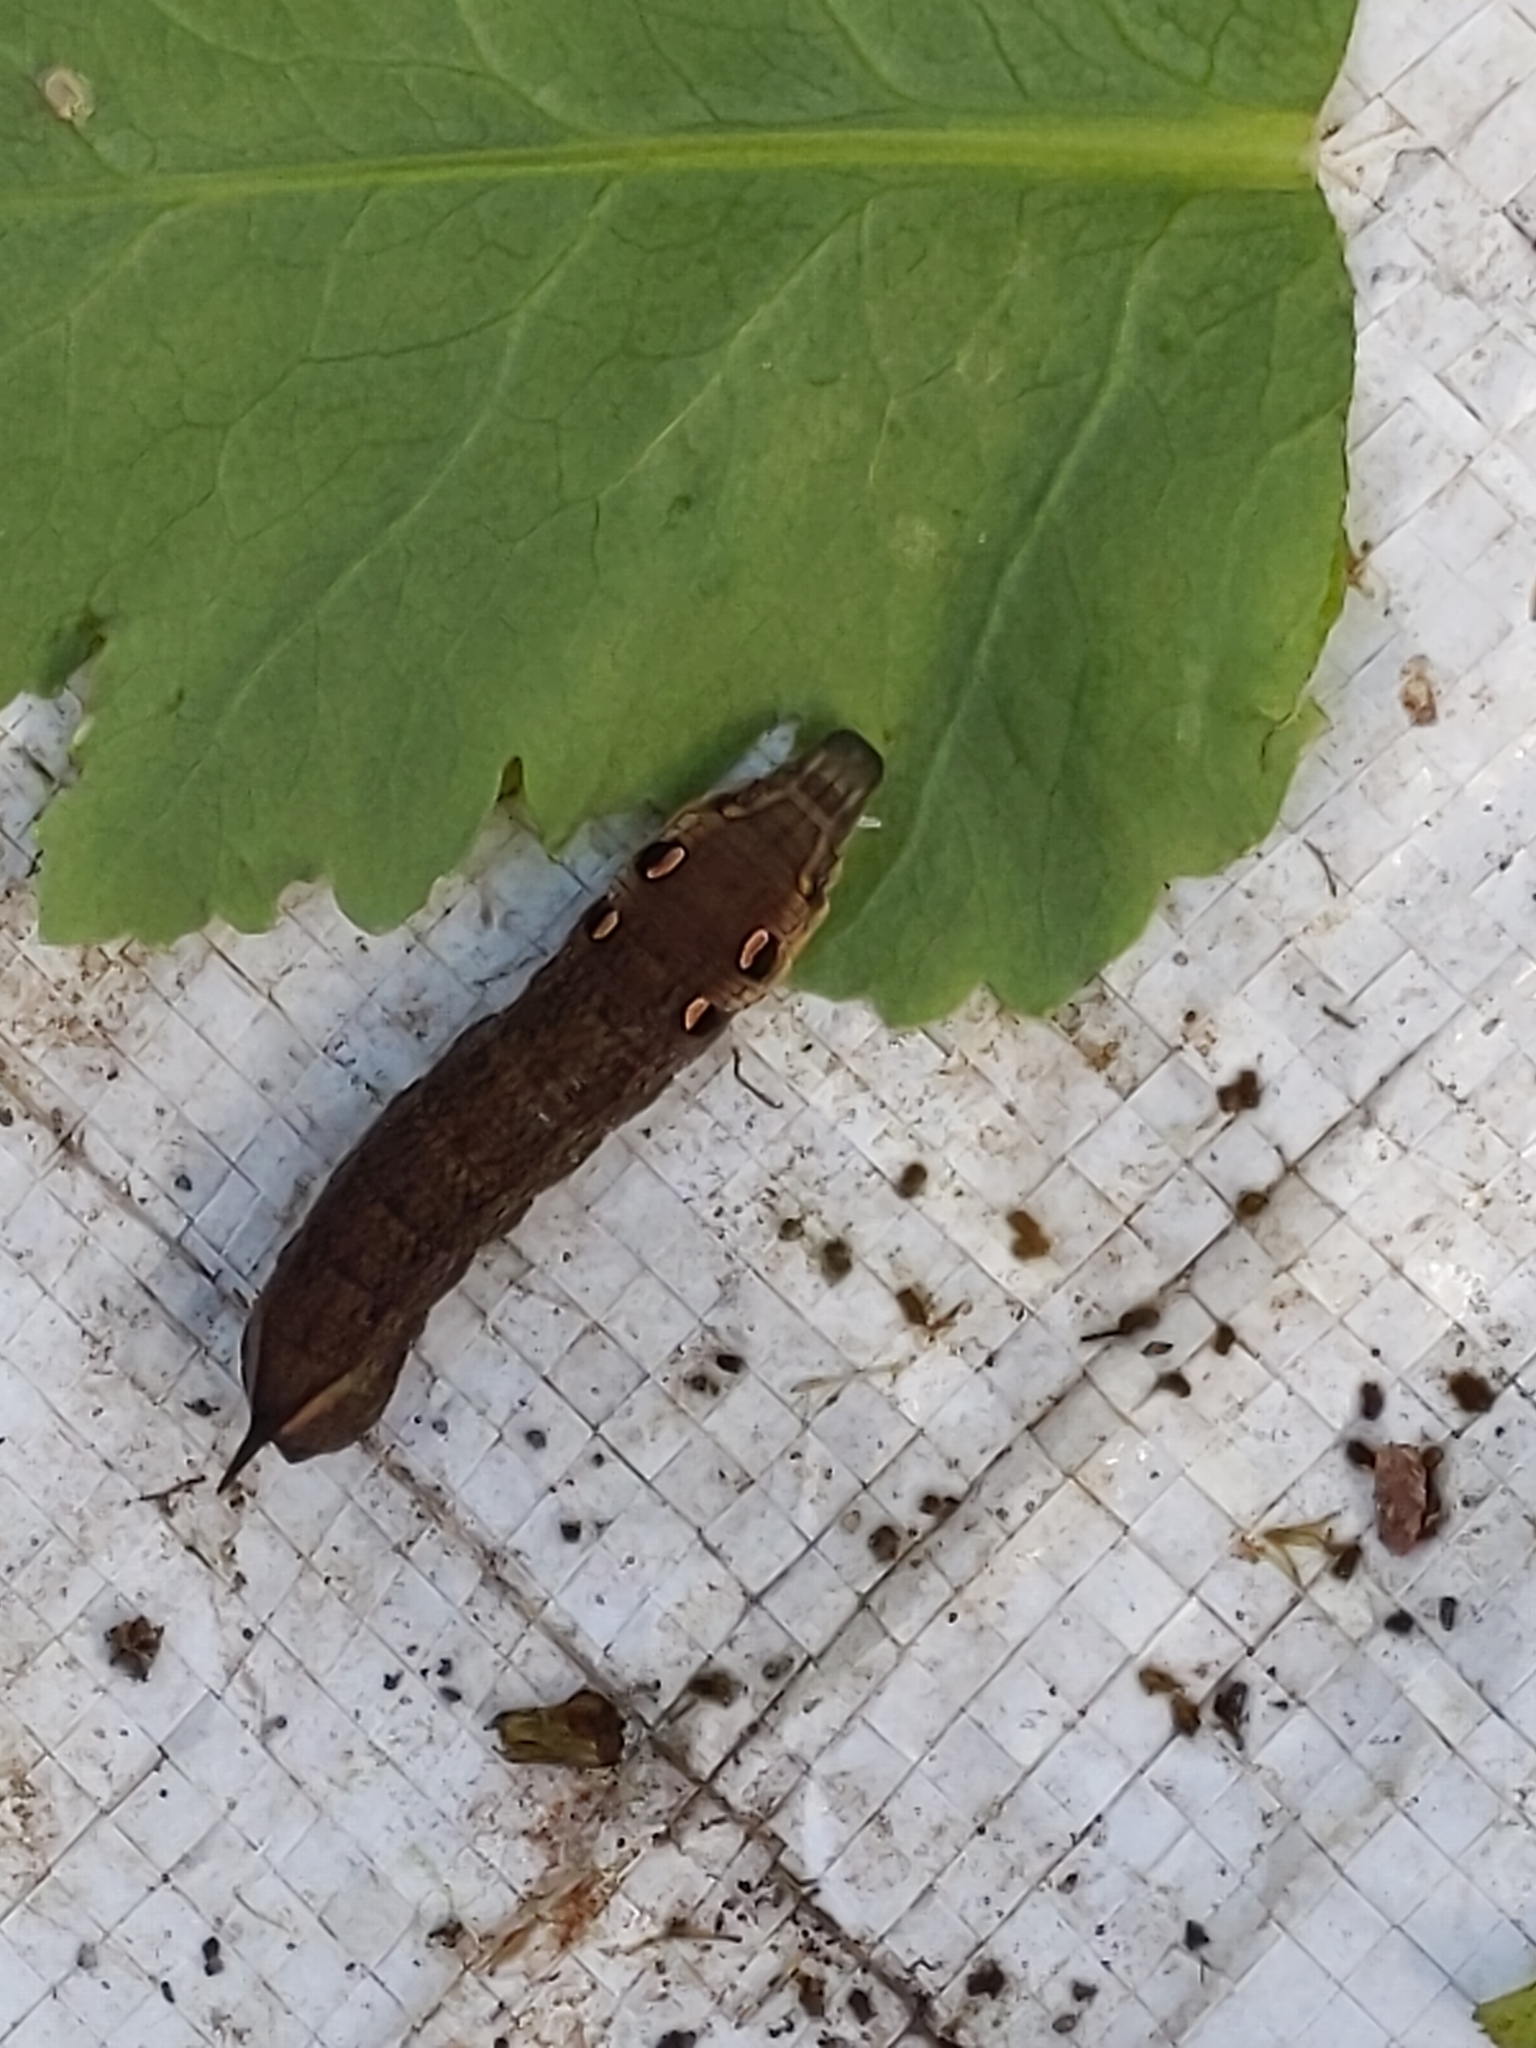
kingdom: Animalia
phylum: Arthropoda
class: Insecta
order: Lepidoptera
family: Sphingidae
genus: Deilephila
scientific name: Deilephila elpenor
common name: Elephant hawk-moth
